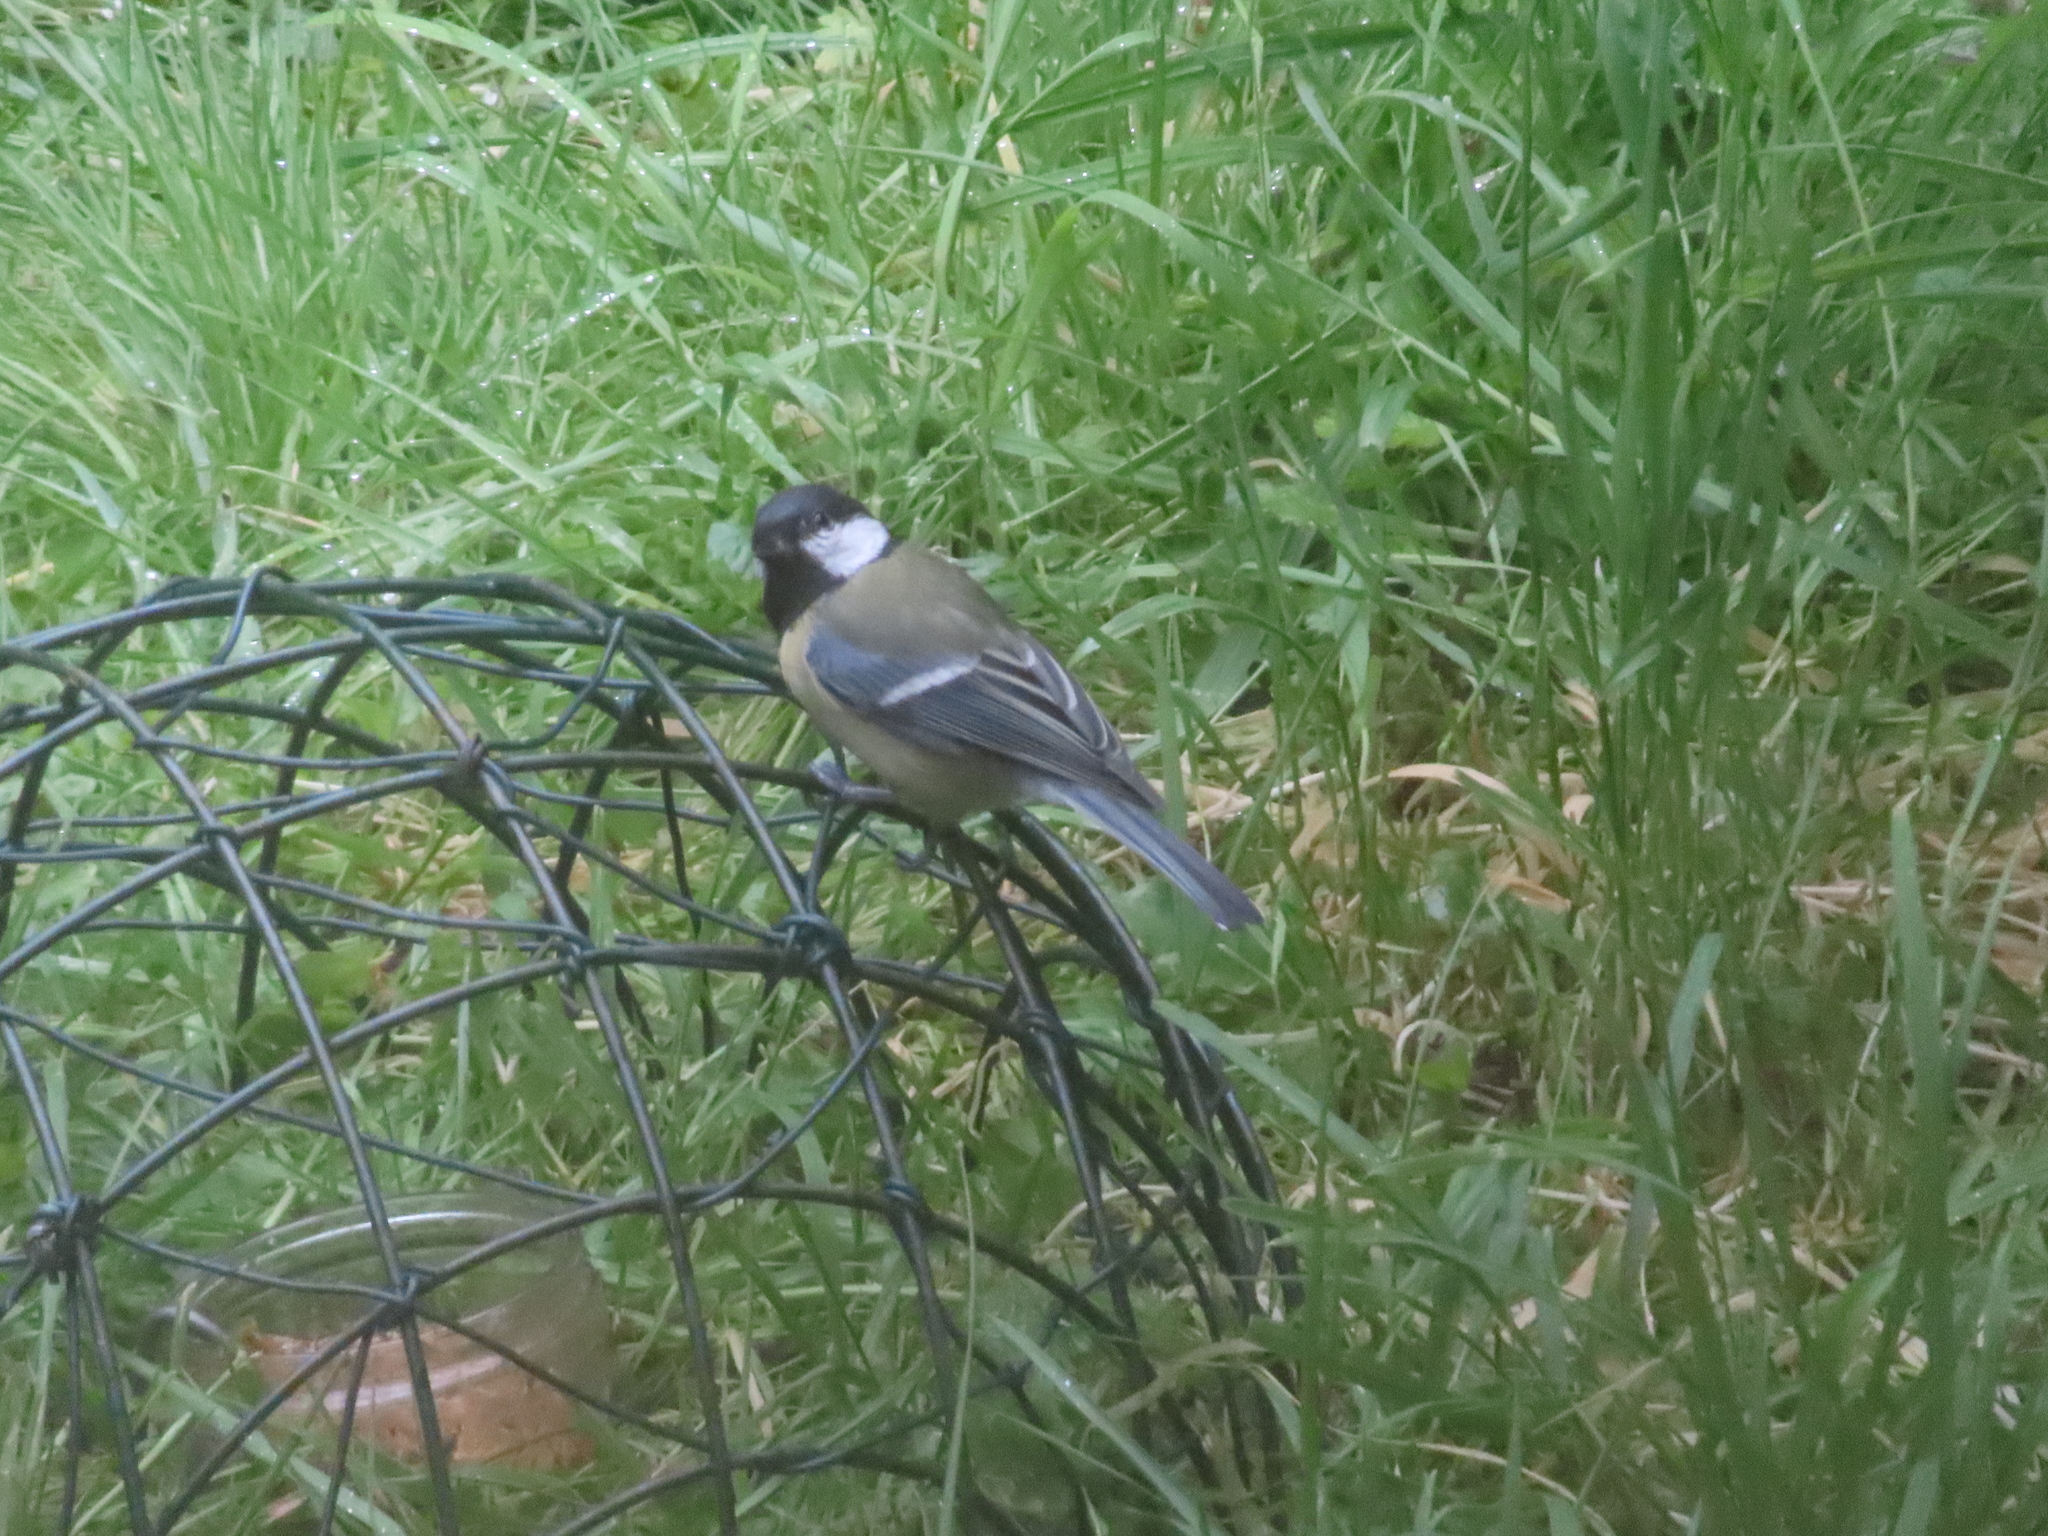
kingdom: Animalia
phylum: Chordata
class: Aves
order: Passeriformes
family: Paridae
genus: Parus
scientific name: Parus major
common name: Great tit
